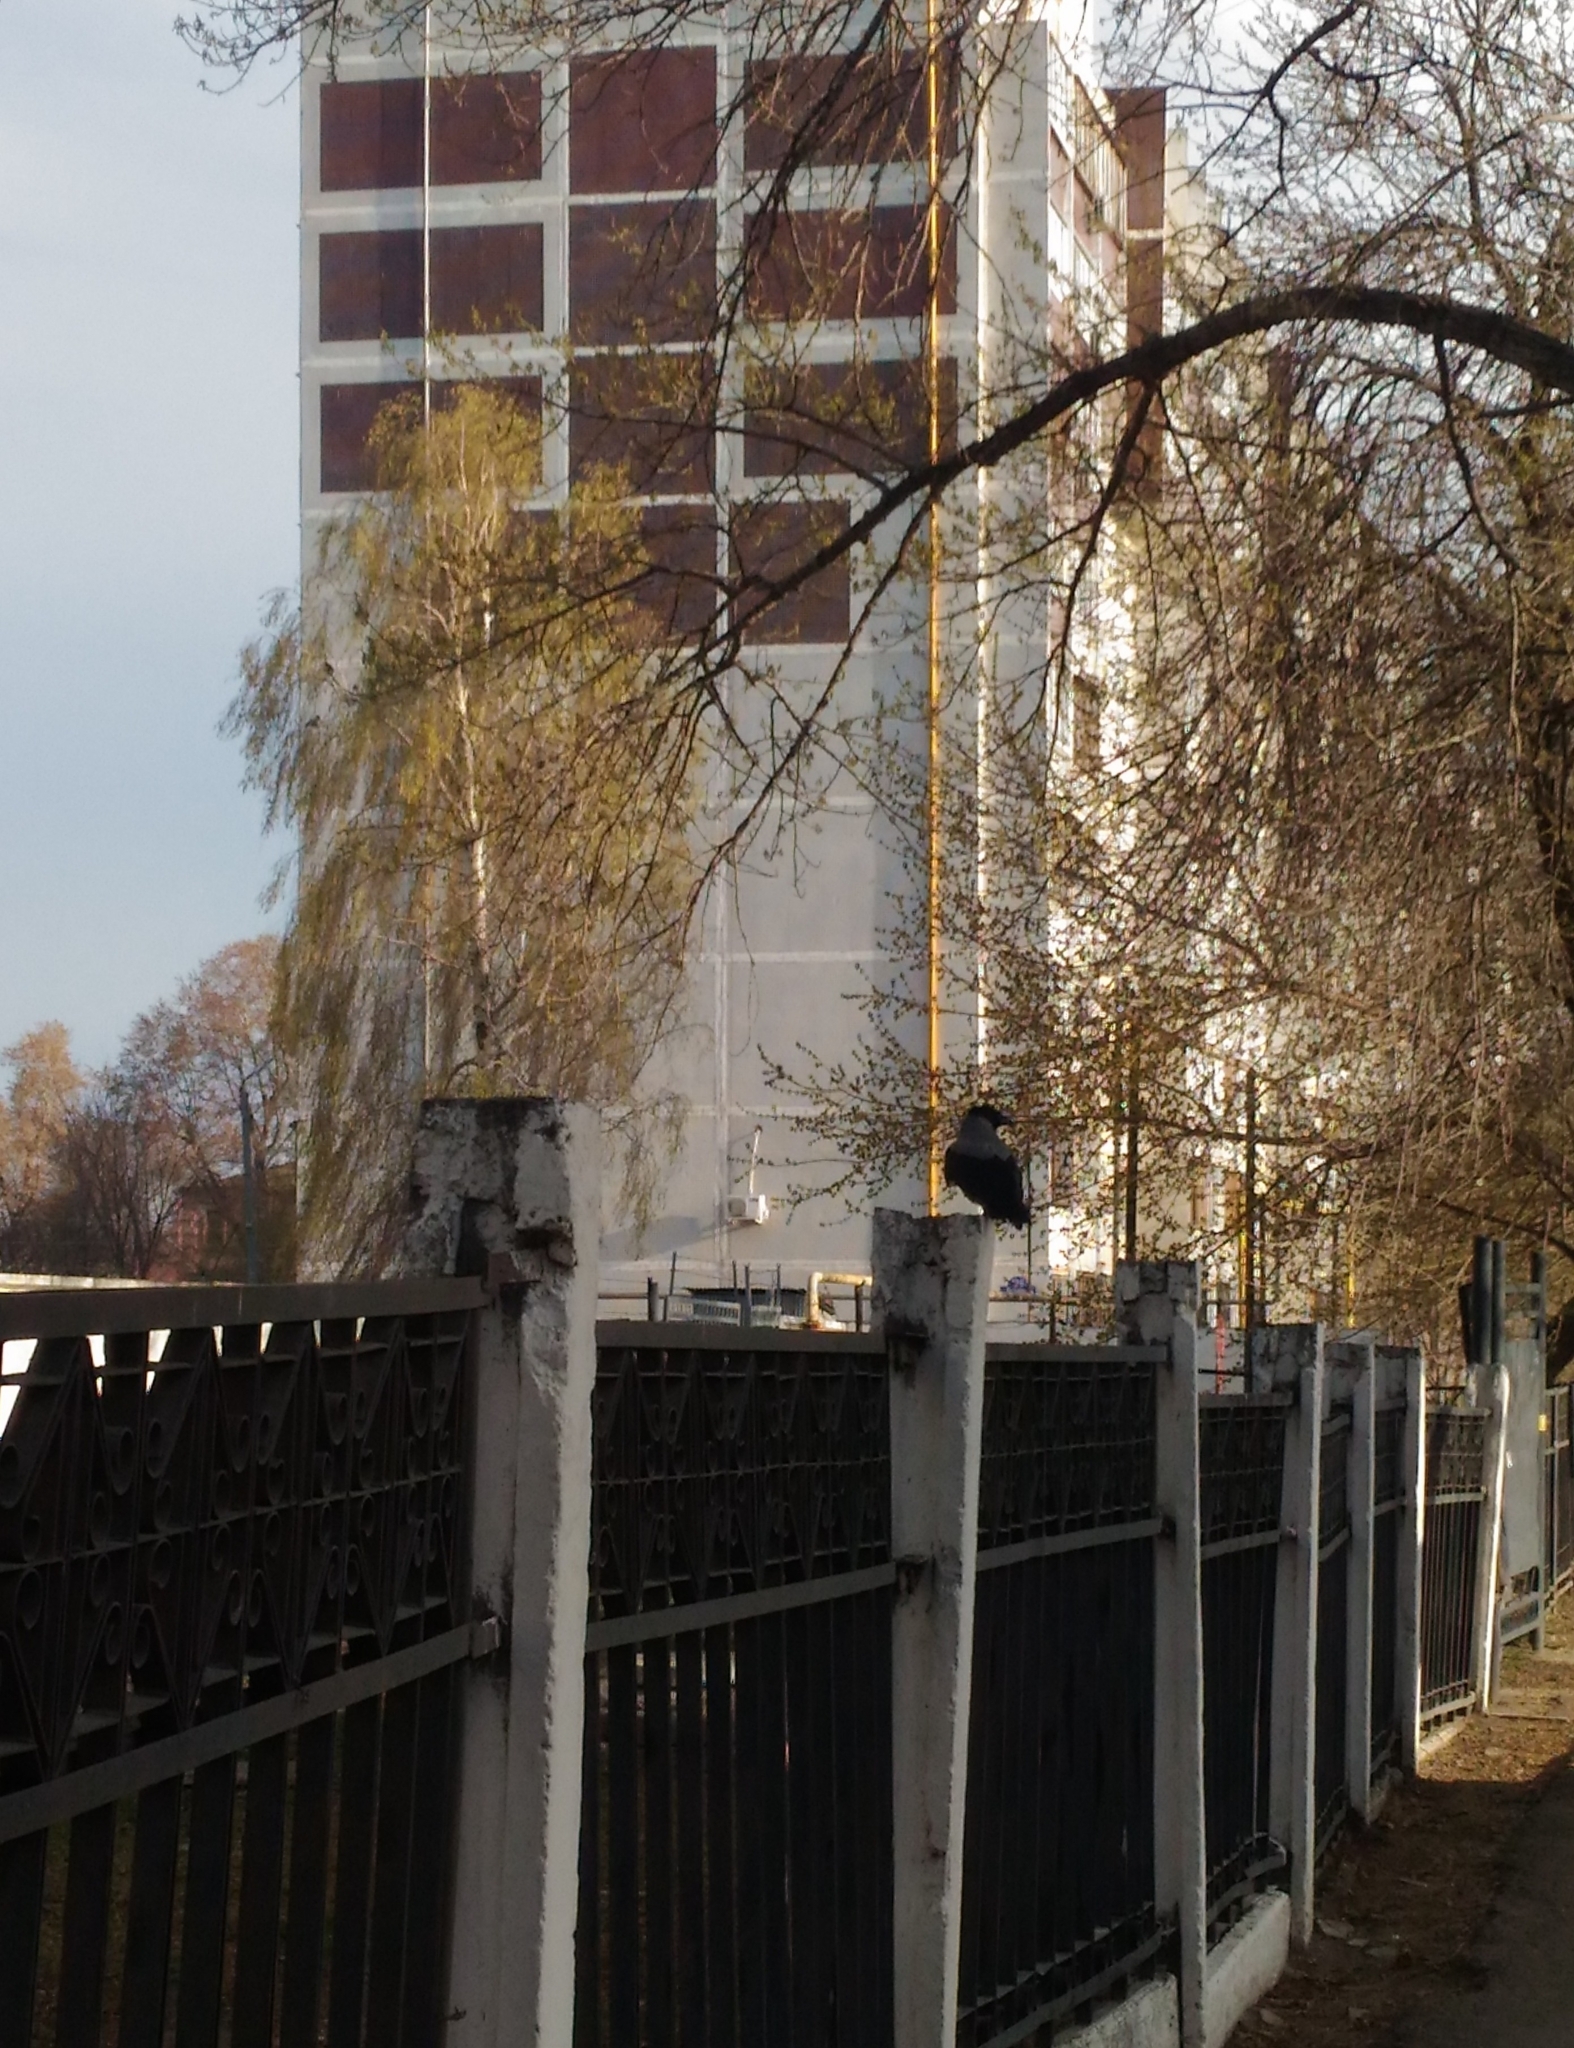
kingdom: Animalia
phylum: Chordata
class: Aves
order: Passeriformes
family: Corvidae
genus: Corvus
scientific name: Corvus cornix
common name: Hooded crow
